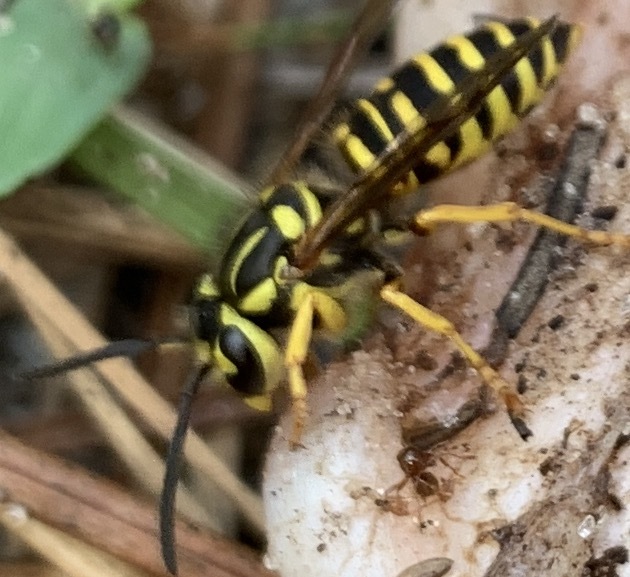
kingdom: Animalia
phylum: Arthropoda
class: Insecta
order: Hymenoptera
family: Vespidae
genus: Vespula
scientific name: Vespula squamosa
